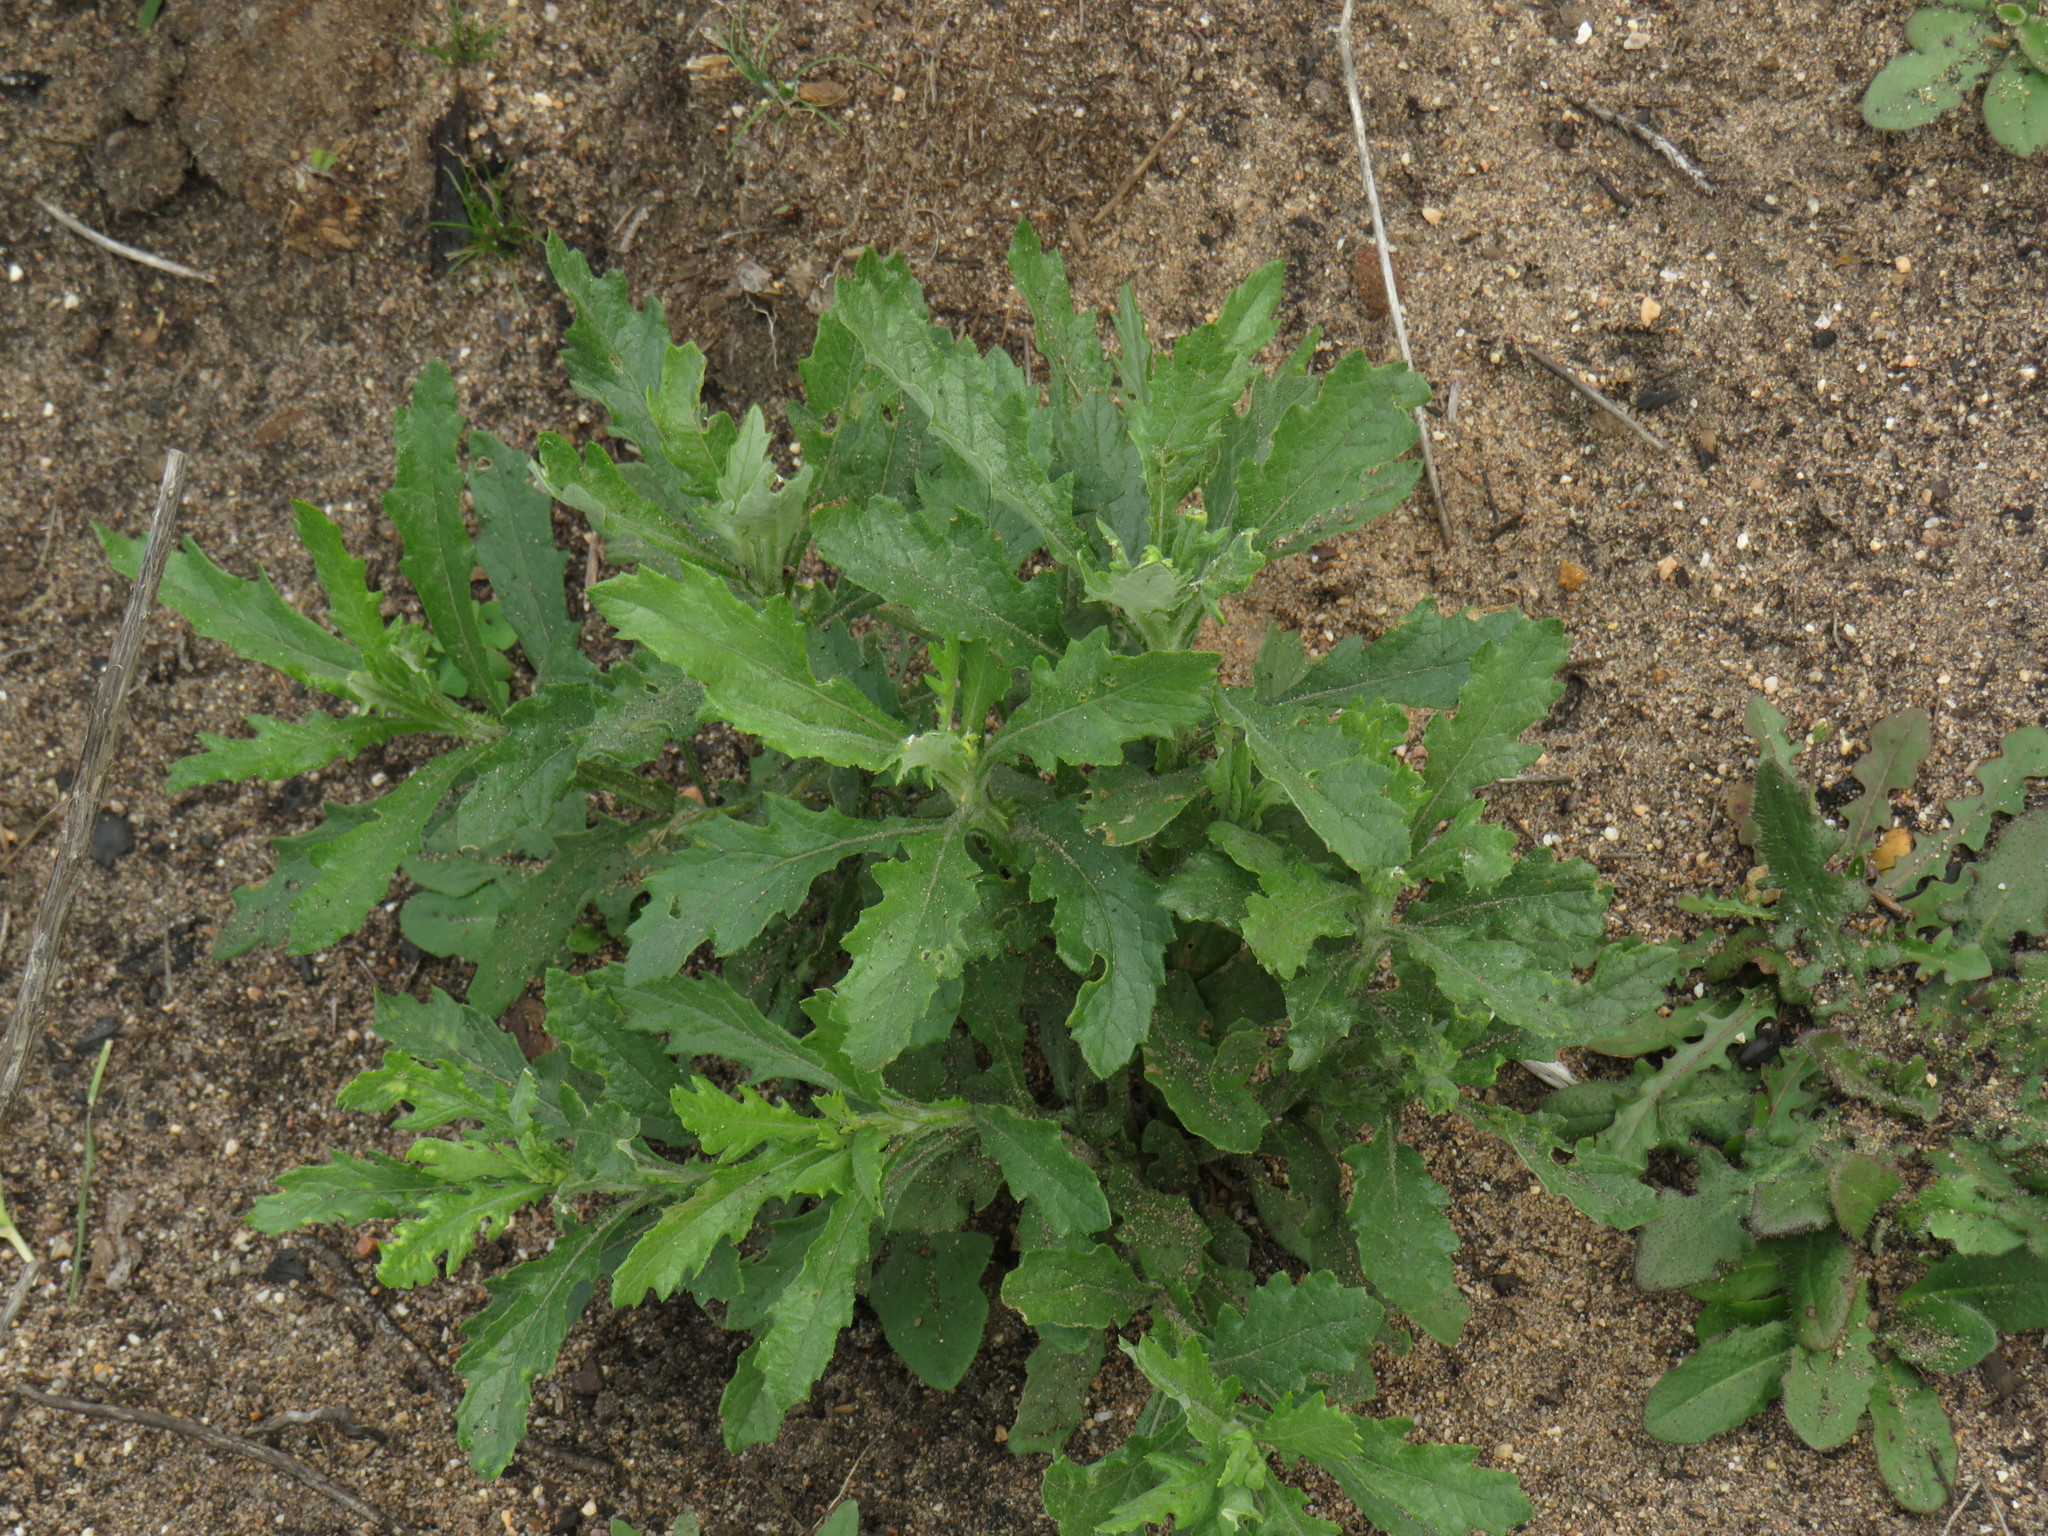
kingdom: Plantae
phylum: Tracheophyta
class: Magnoliopsida
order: Asterales
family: Asteraceae
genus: Senecio
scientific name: Senecio pterophorus
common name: Shoddy ragwort
